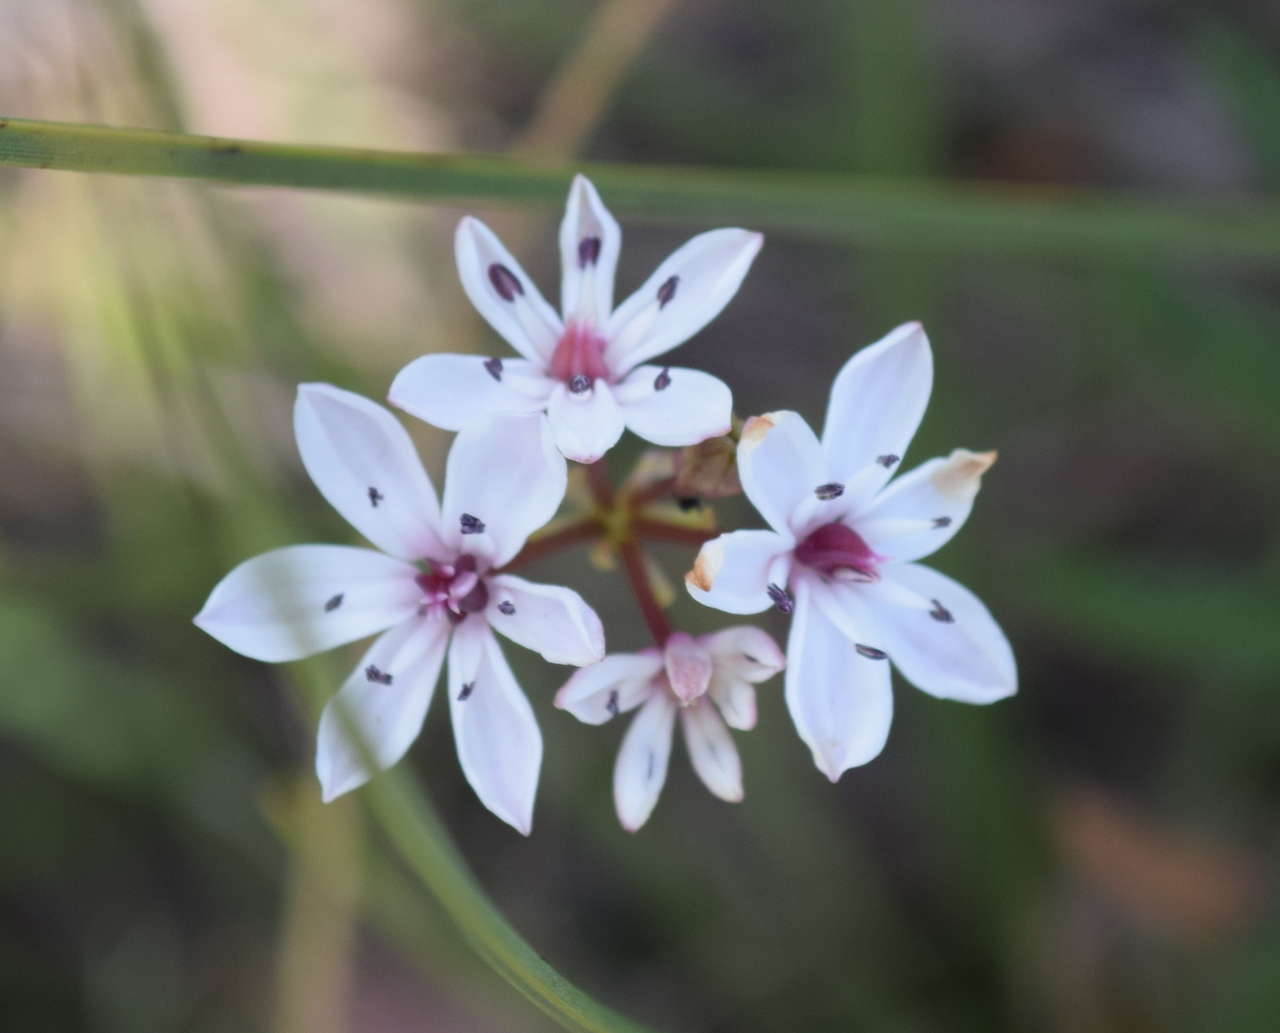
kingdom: Plantae
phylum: Tracheophyta
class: Liliopsida
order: Liliales
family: Colchicaceae
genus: Burchardia
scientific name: Burchardia umbellata
